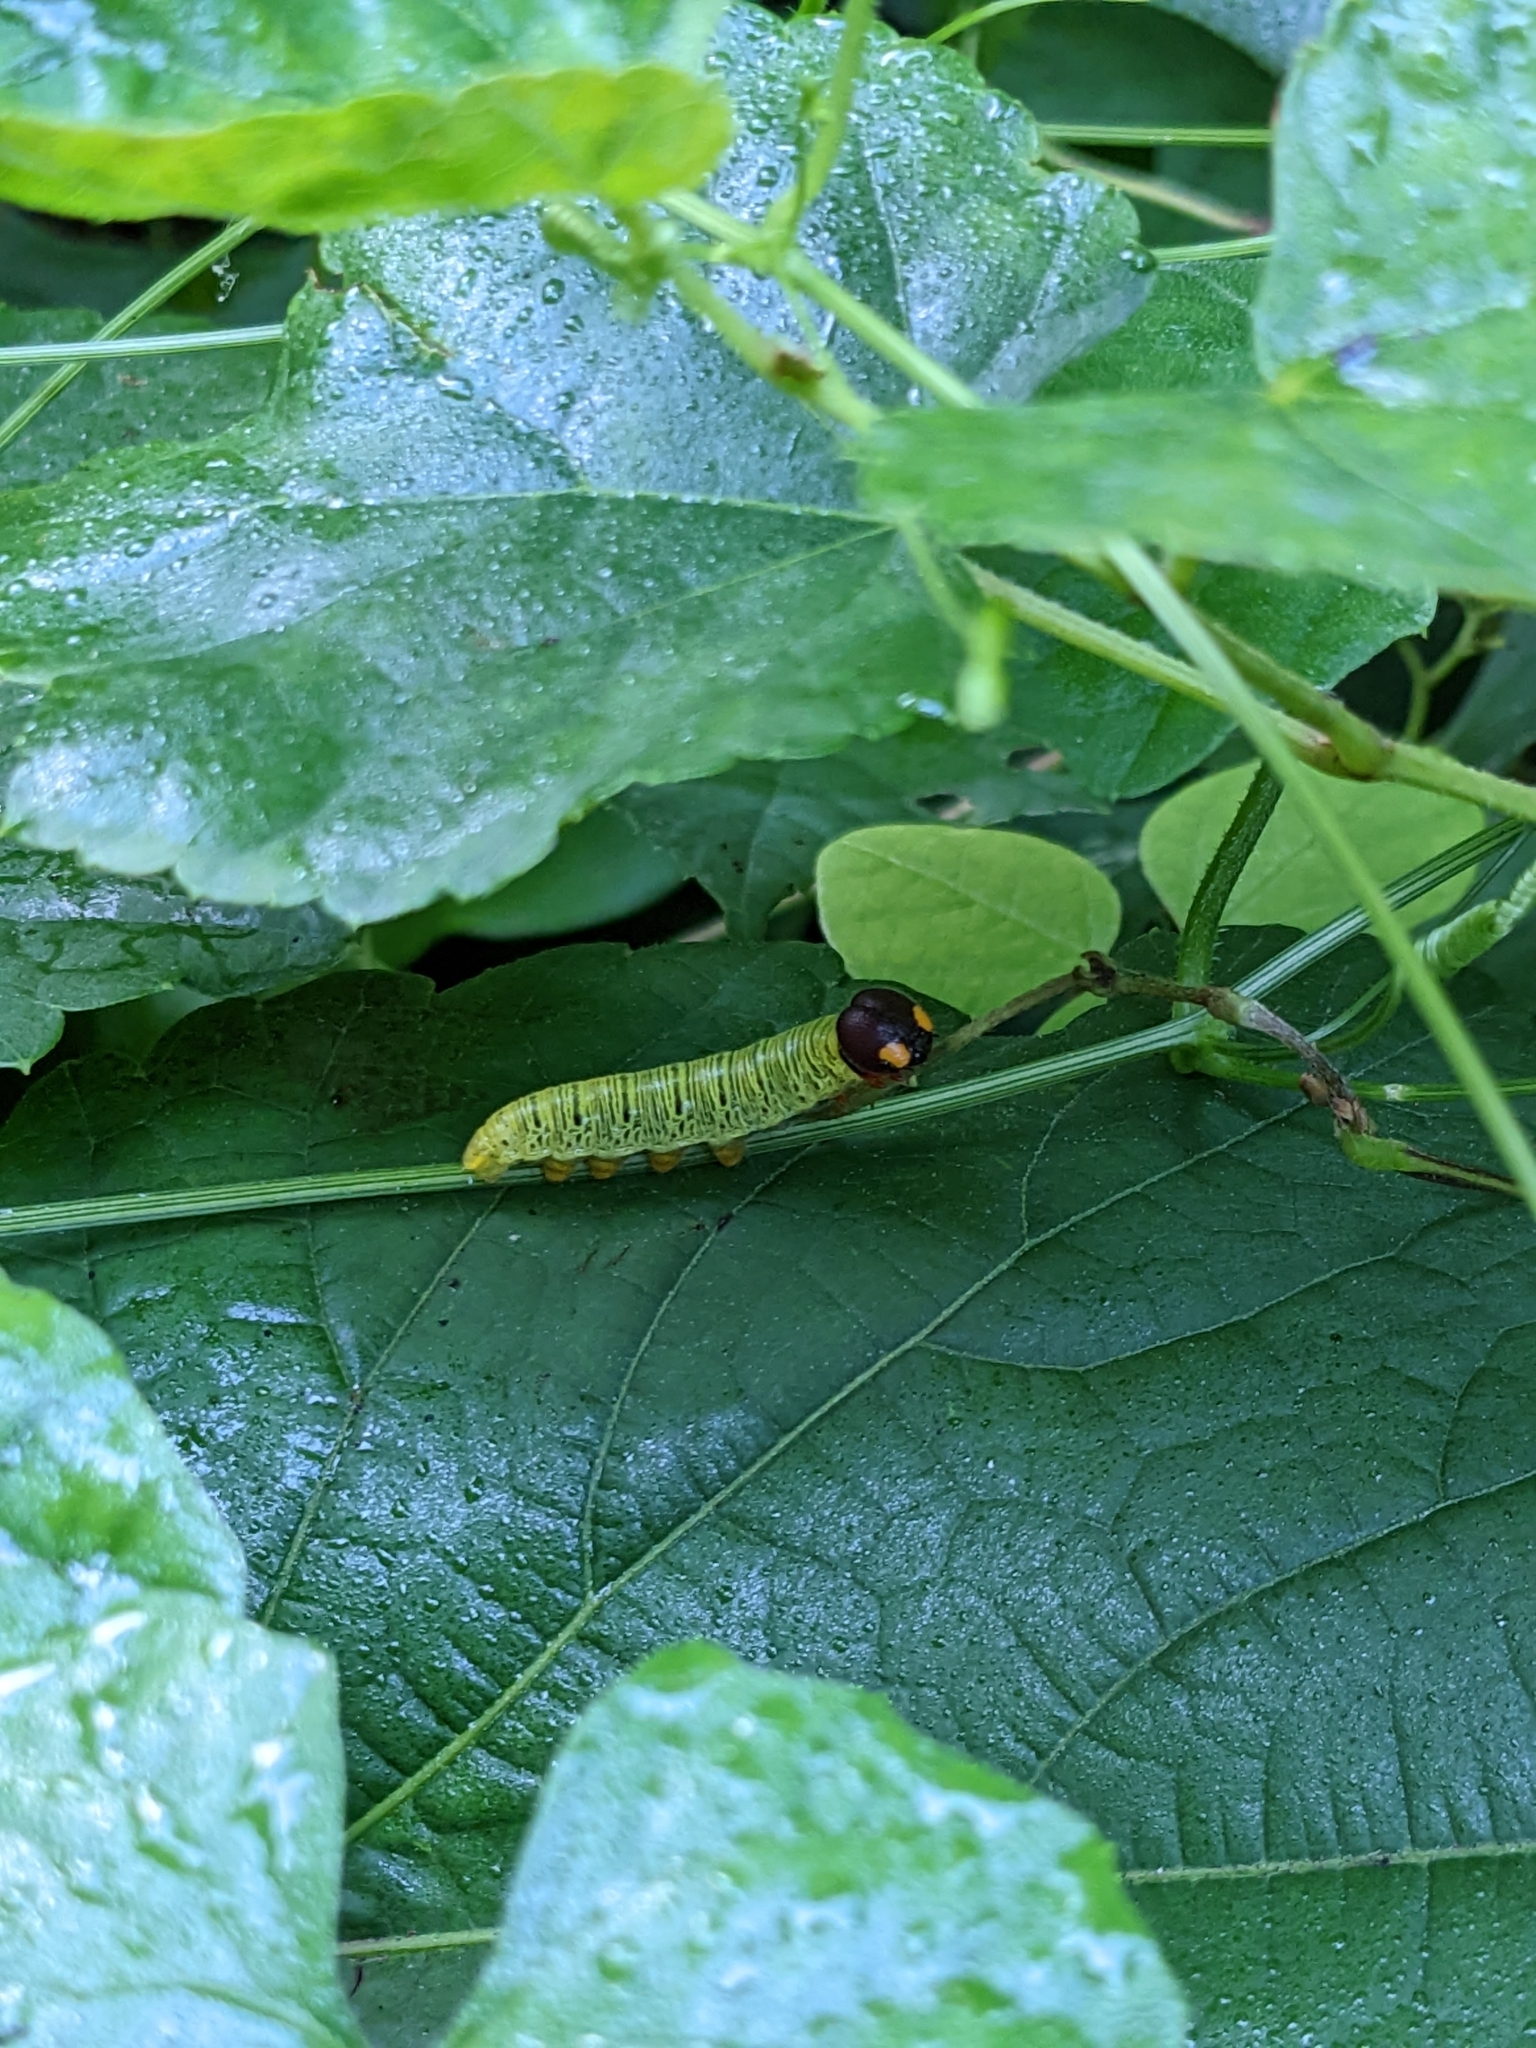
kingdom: Animalia
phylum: Arthropoda
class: Insecta
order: Lepidoptera
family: Hesperiidae
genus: Epargyreus
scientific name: Epargyreus clarus
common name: Silver-spotted skipper
